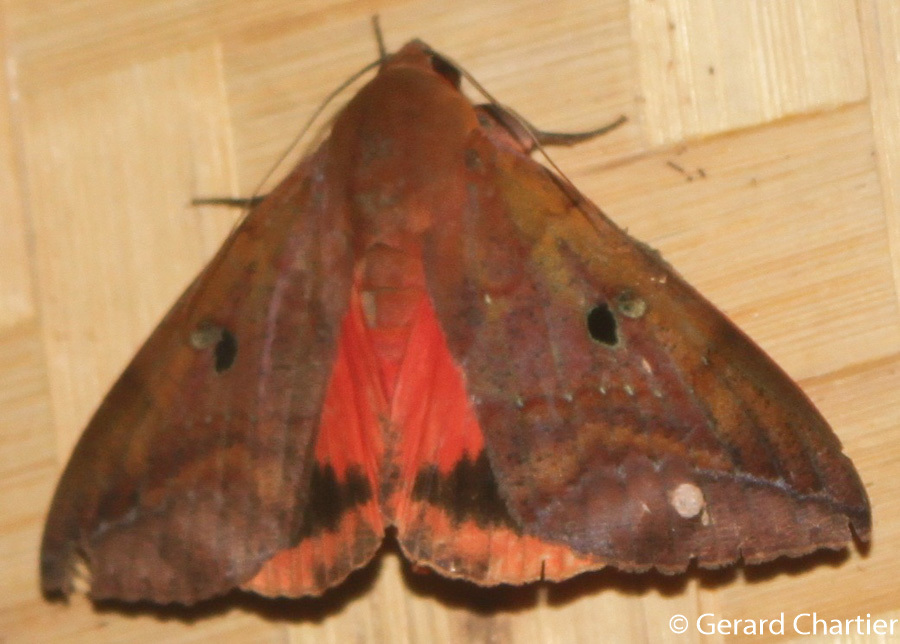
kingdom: Animalia
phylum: Arthropoda
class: Insecta
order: Lepidoptera
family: Erebidae
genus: Thyas
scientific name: Thyas honesta
